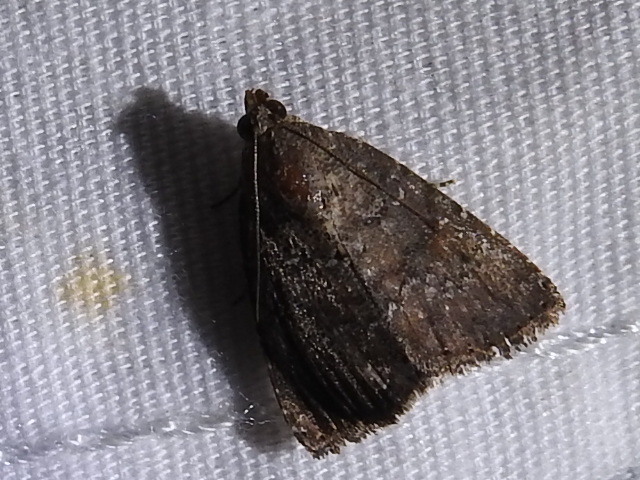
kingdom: Animalia
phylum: Arthropoda
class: Insecta
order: Lepidoptera
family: Noctuidae
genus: Amyna
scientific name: Amyna stricta
